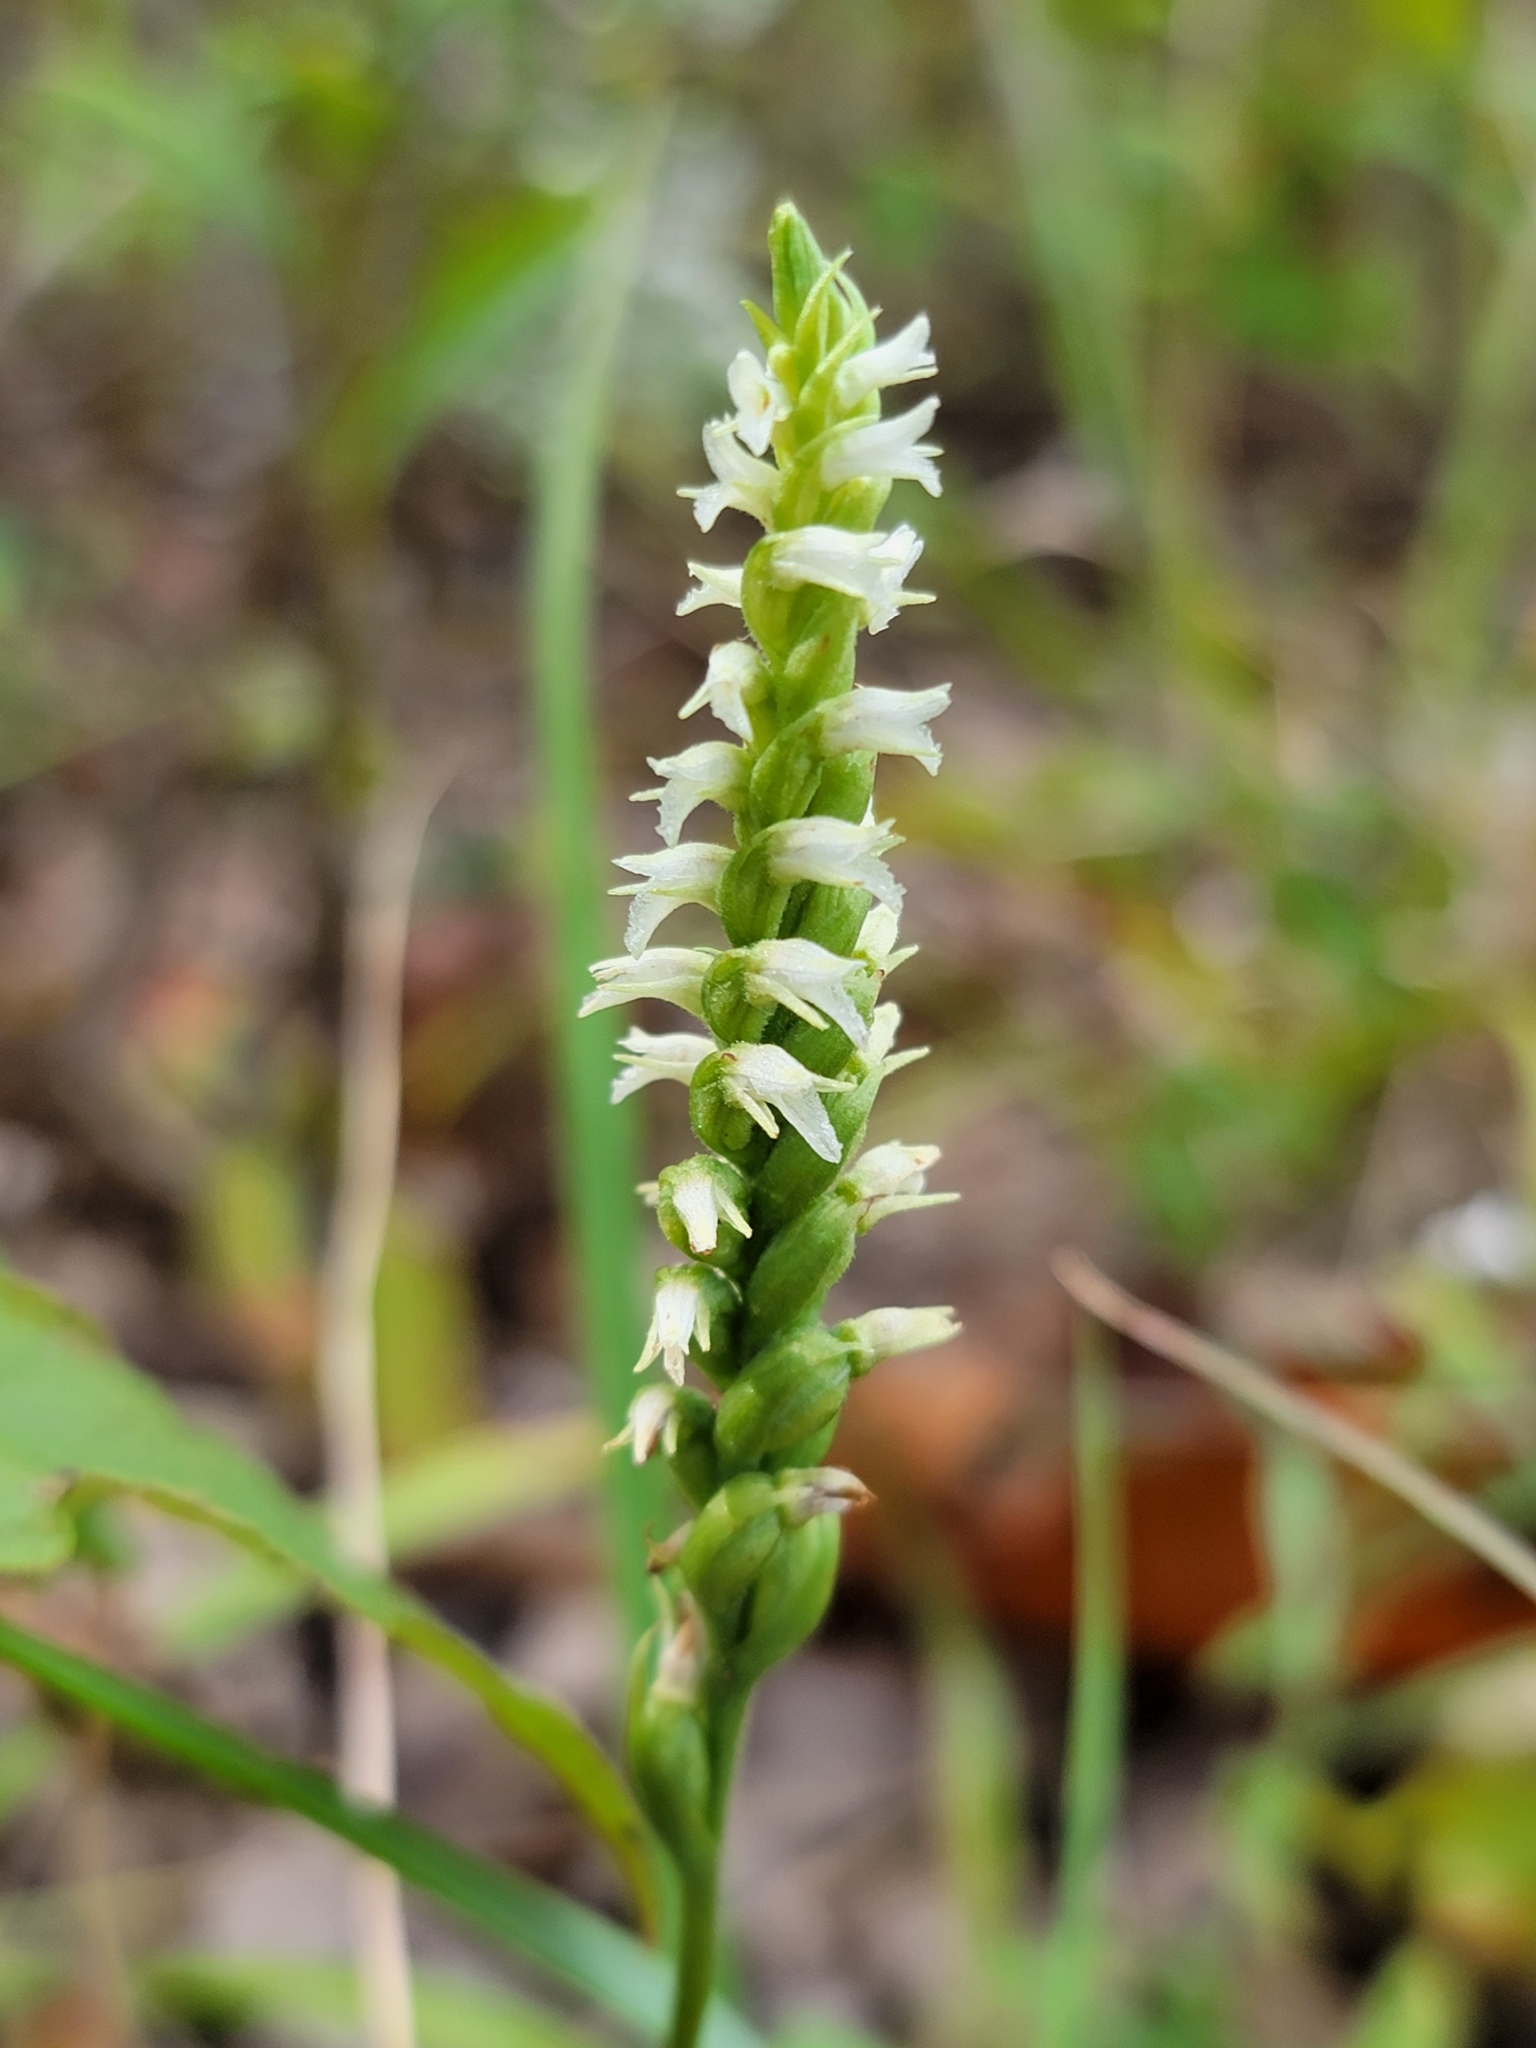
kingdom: Plantae
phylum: Tracheophyta
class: Liliopsida
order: Asparagales
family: Orchidaceae
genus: Spiranthes
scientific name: Spiranthes ovalis
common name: October ladies'-tresses
